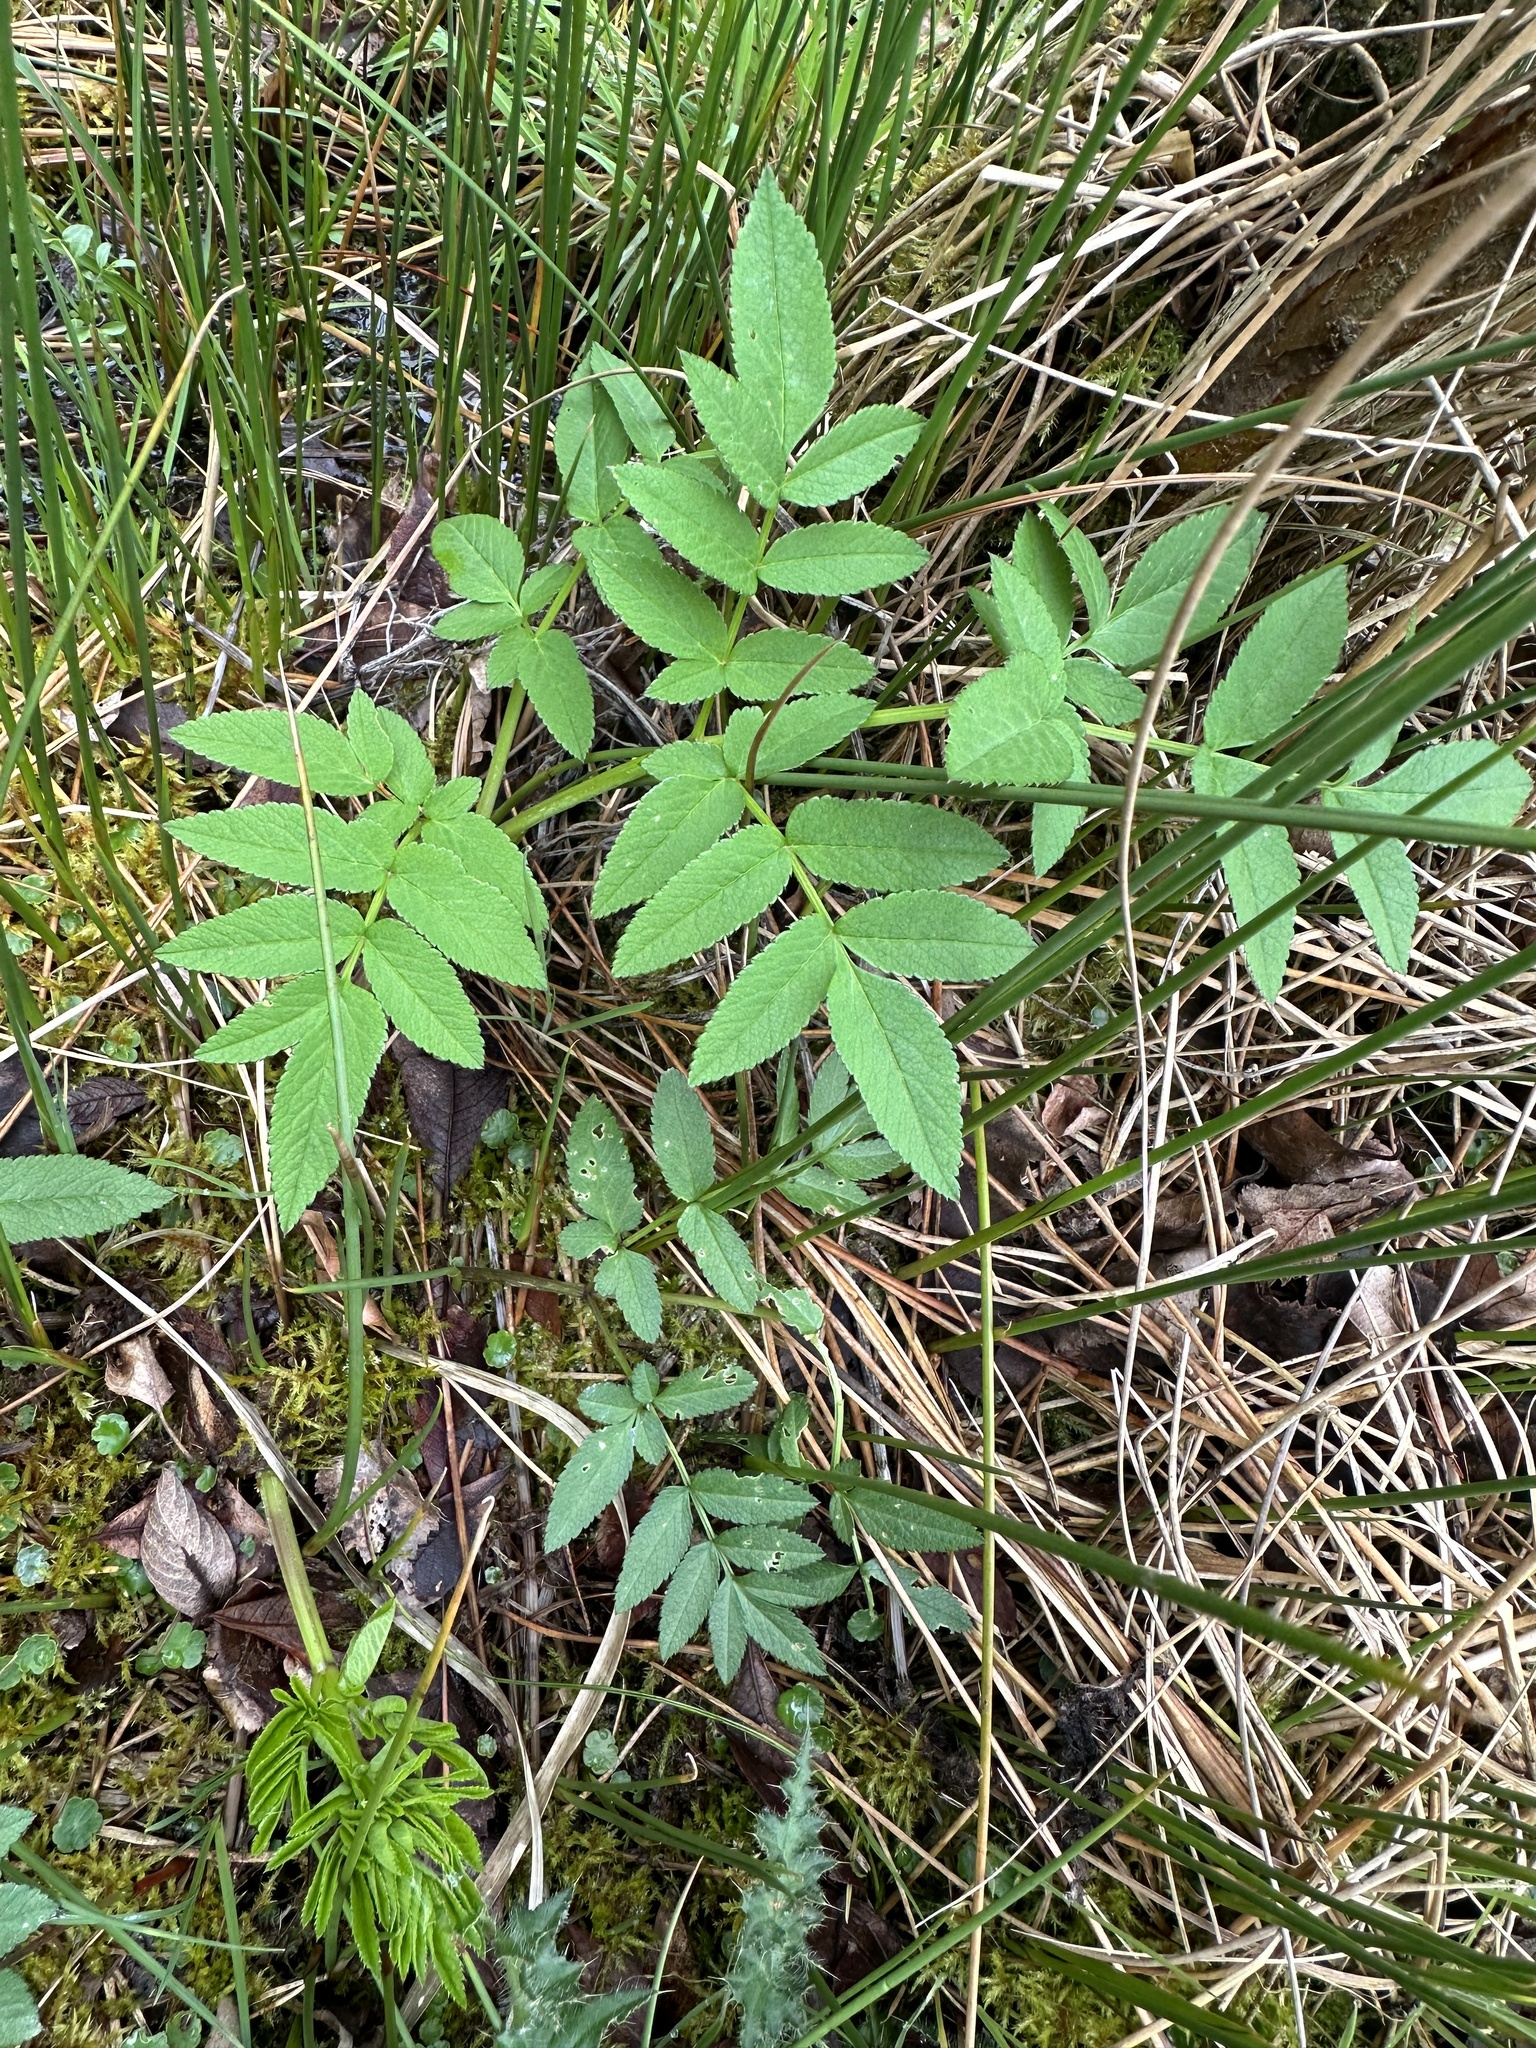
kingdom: Plantae
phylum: Tracheophyta
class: Magnoliopsida
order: Apiales
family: Apiaceae
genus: Angelica
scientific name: Angelica sylvestris
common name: Wild angelica
